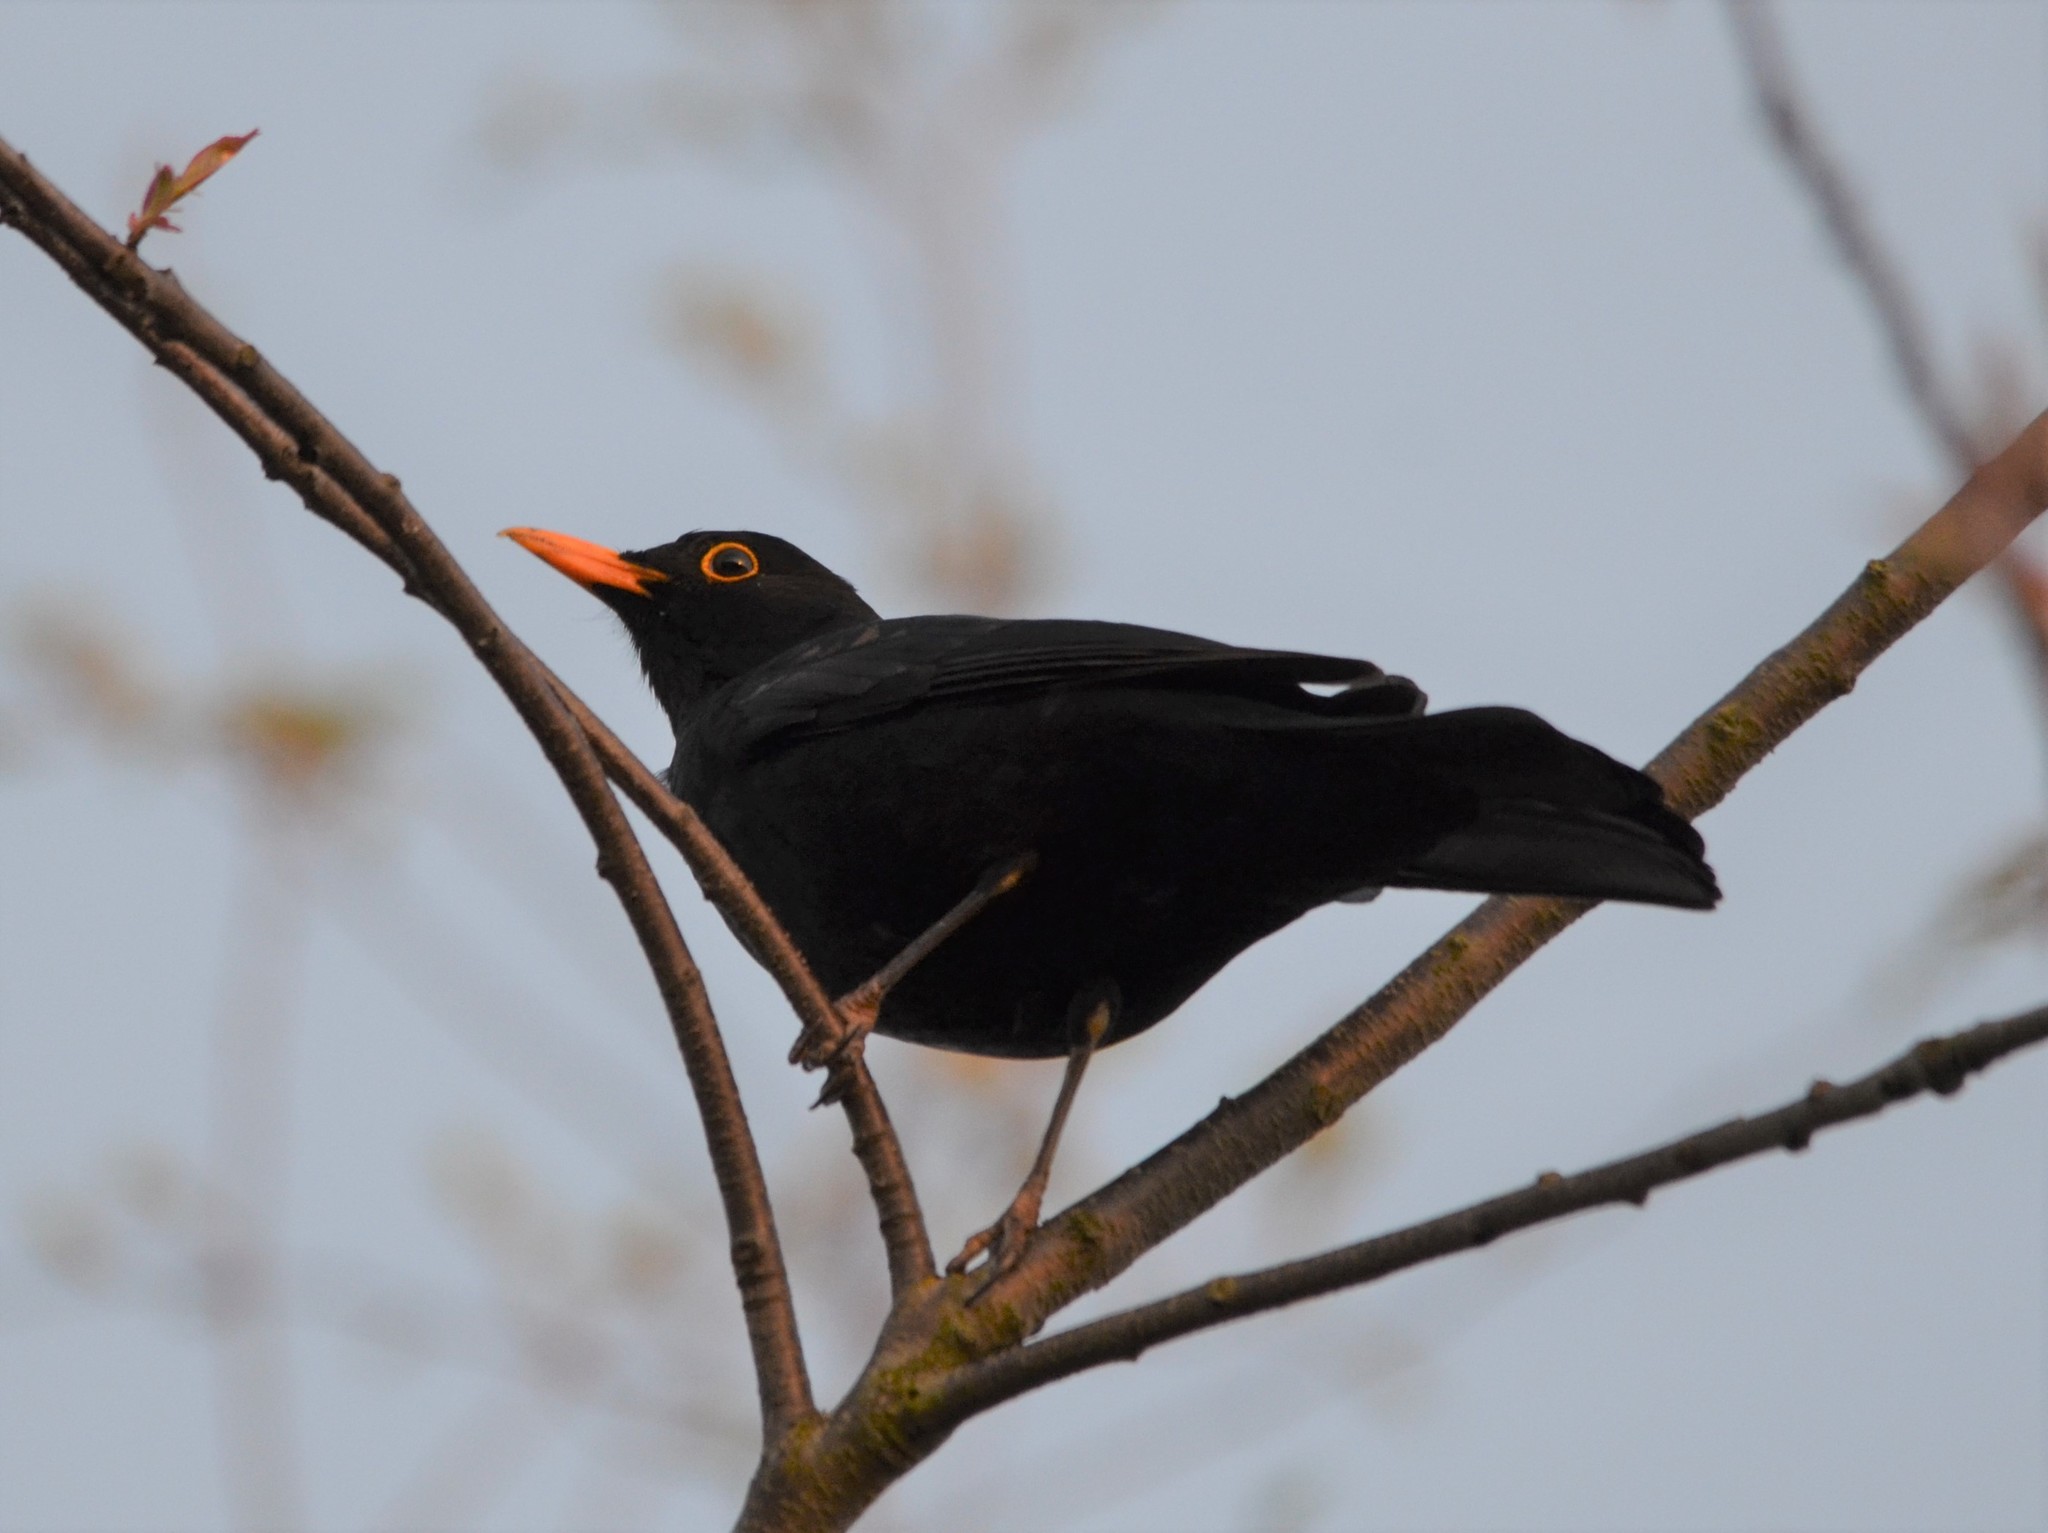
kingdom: Animalia
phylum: Chordata
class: Aves
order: Passeriformes
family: Turdidae
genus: Turdus
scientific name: Turdus merula
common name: Common blackbird
